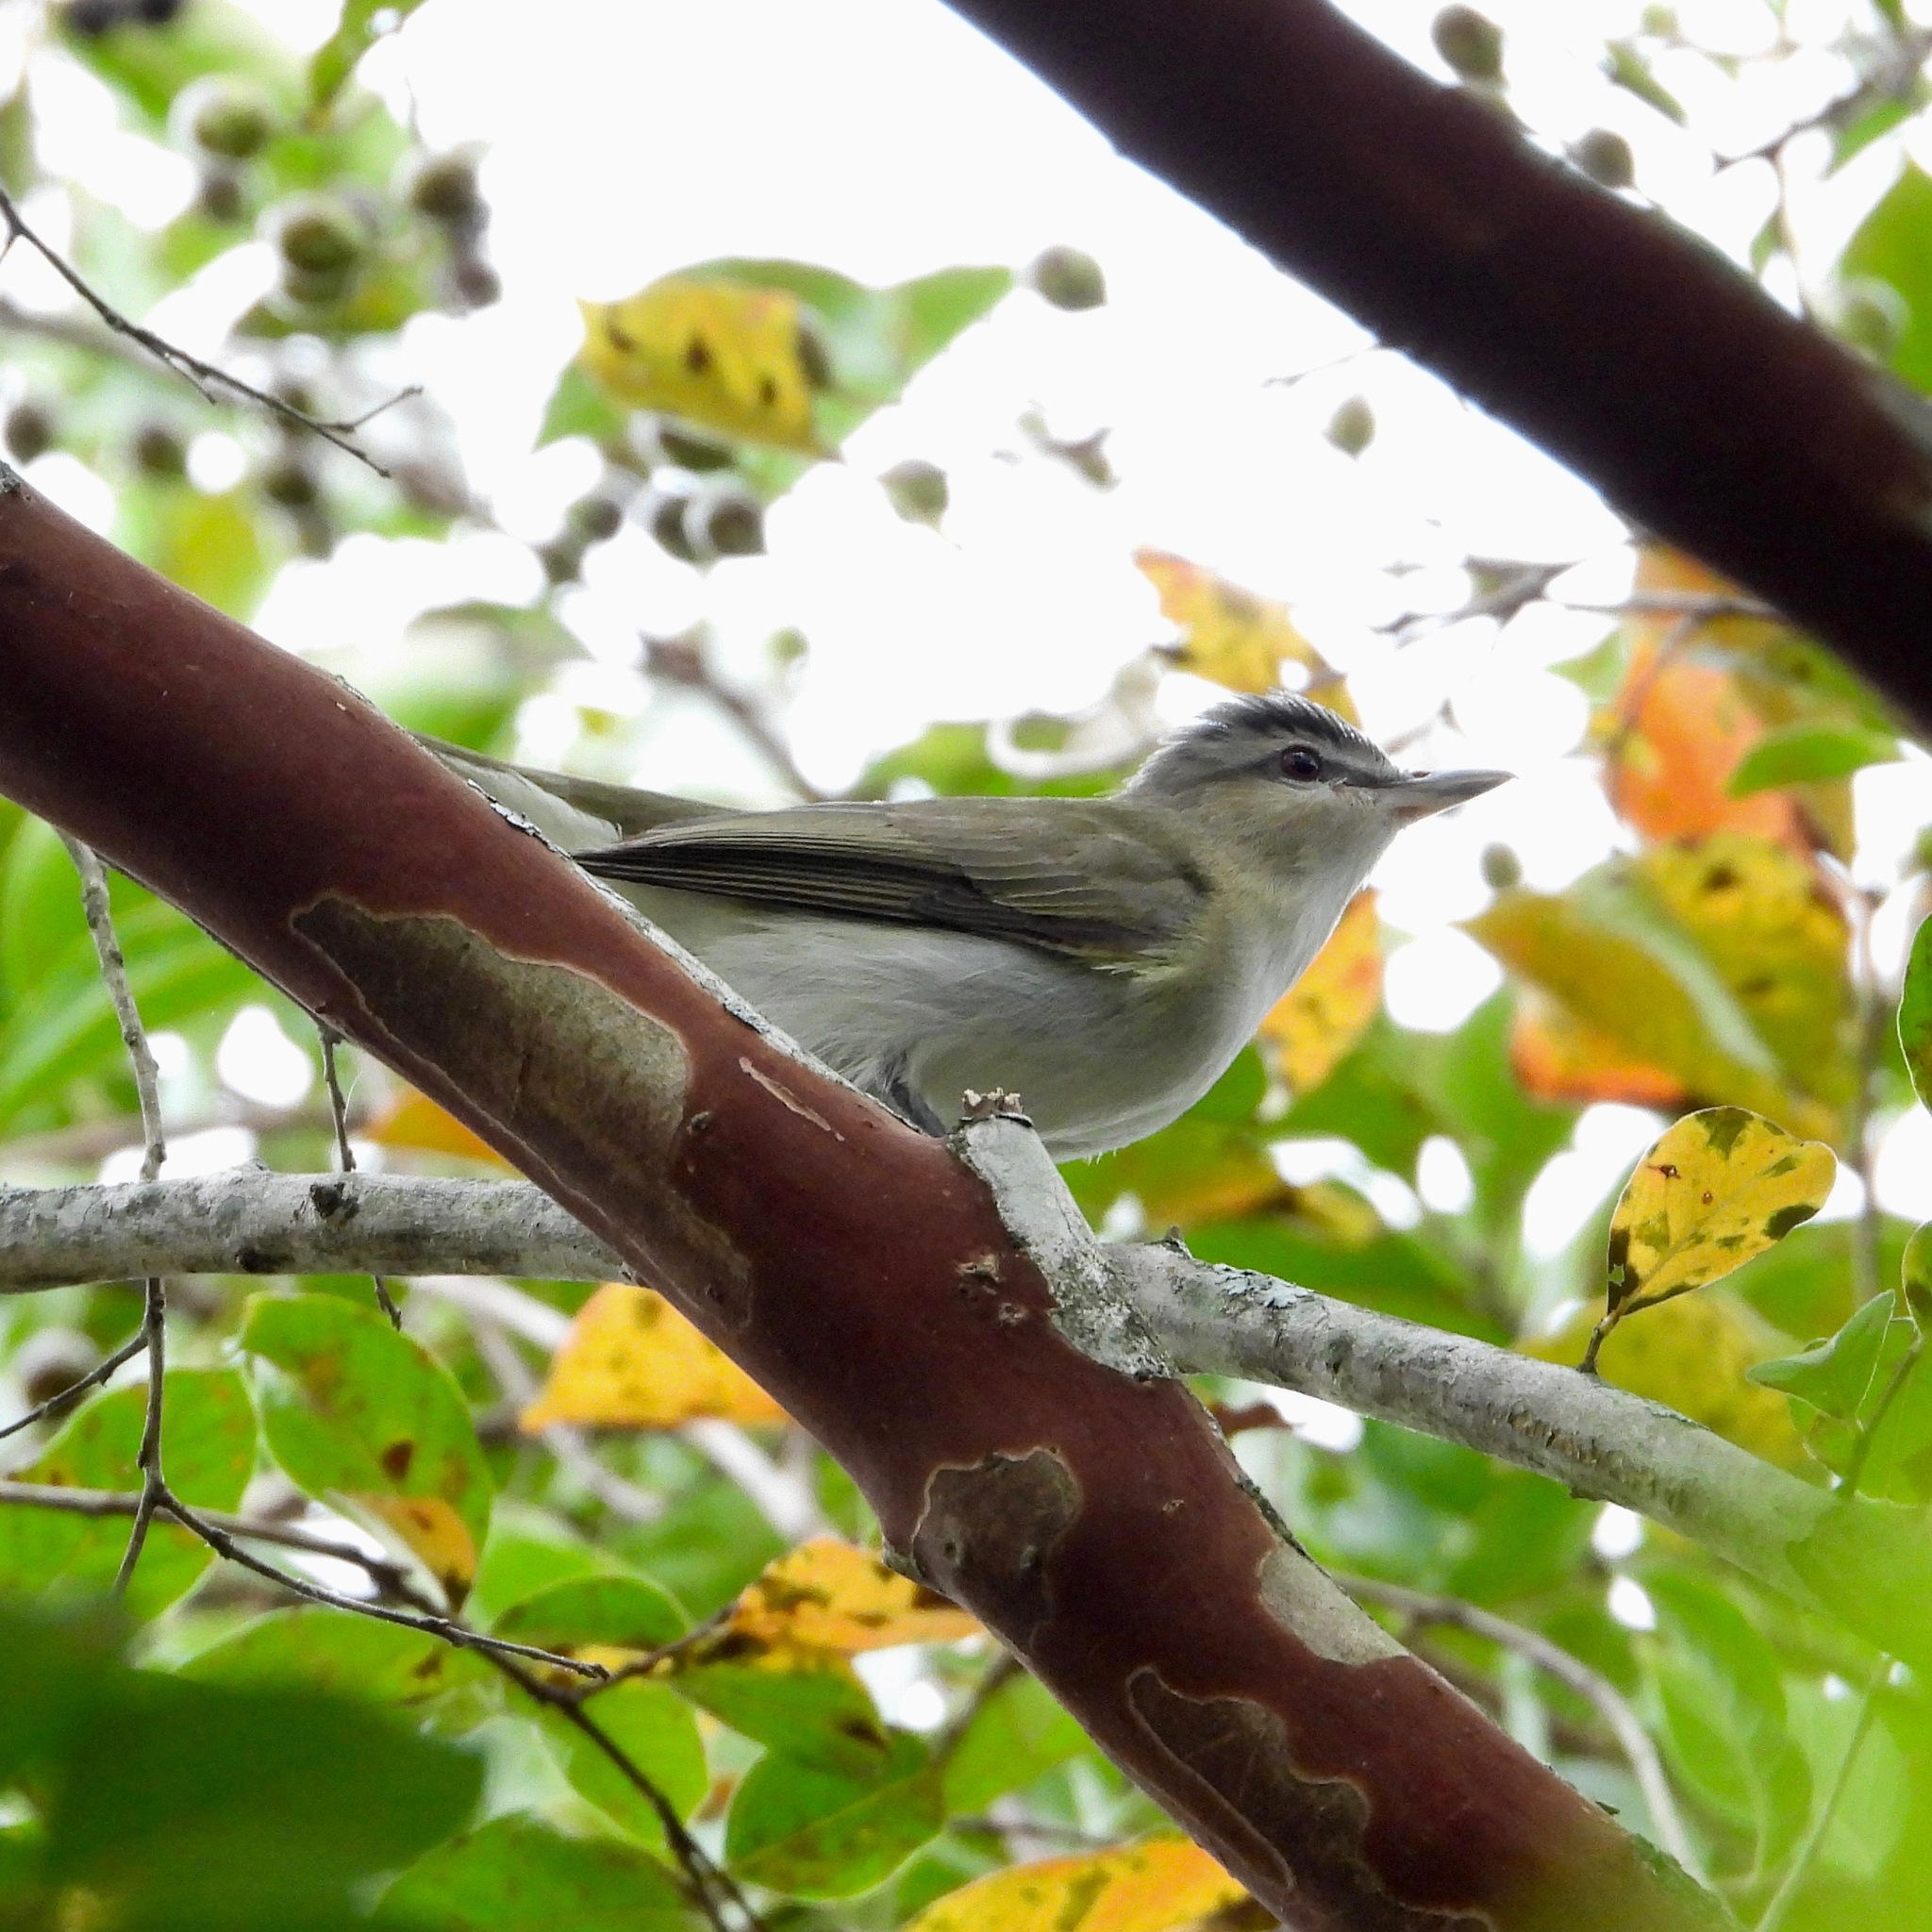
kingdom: Animalia
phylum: Chordata
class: Aves
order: Passeriformes
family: Vireonidae
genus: Vireo
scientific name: Vireo olivaceus
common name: Red-eyed vireo
